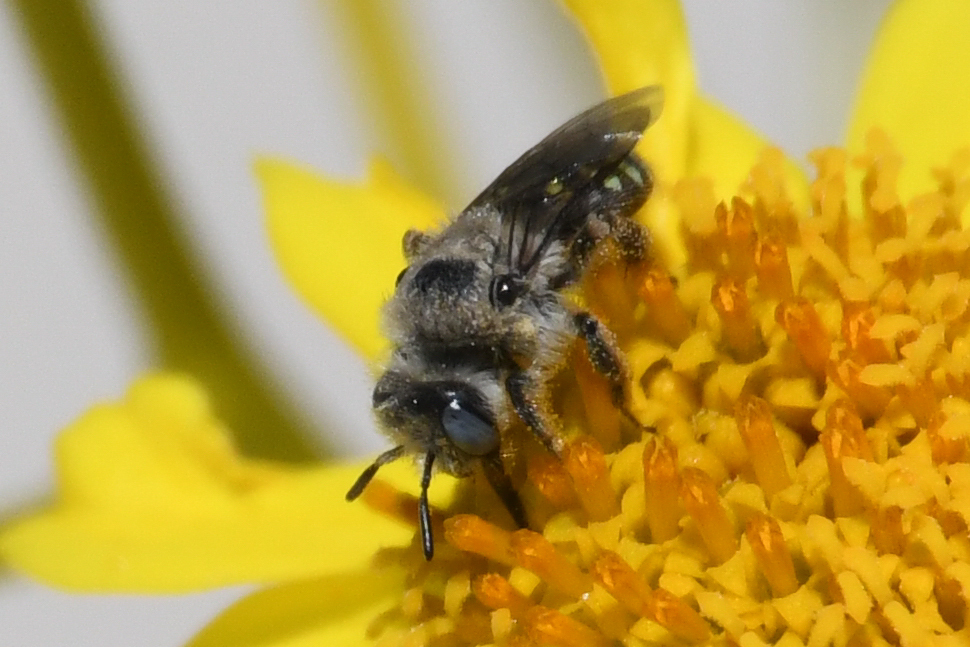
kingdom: Animalia
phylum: Arthropoda
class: Insecta
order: Hymenoptera
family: Andrenidae
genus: Calliopsis
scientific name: Calliopsis puellae
